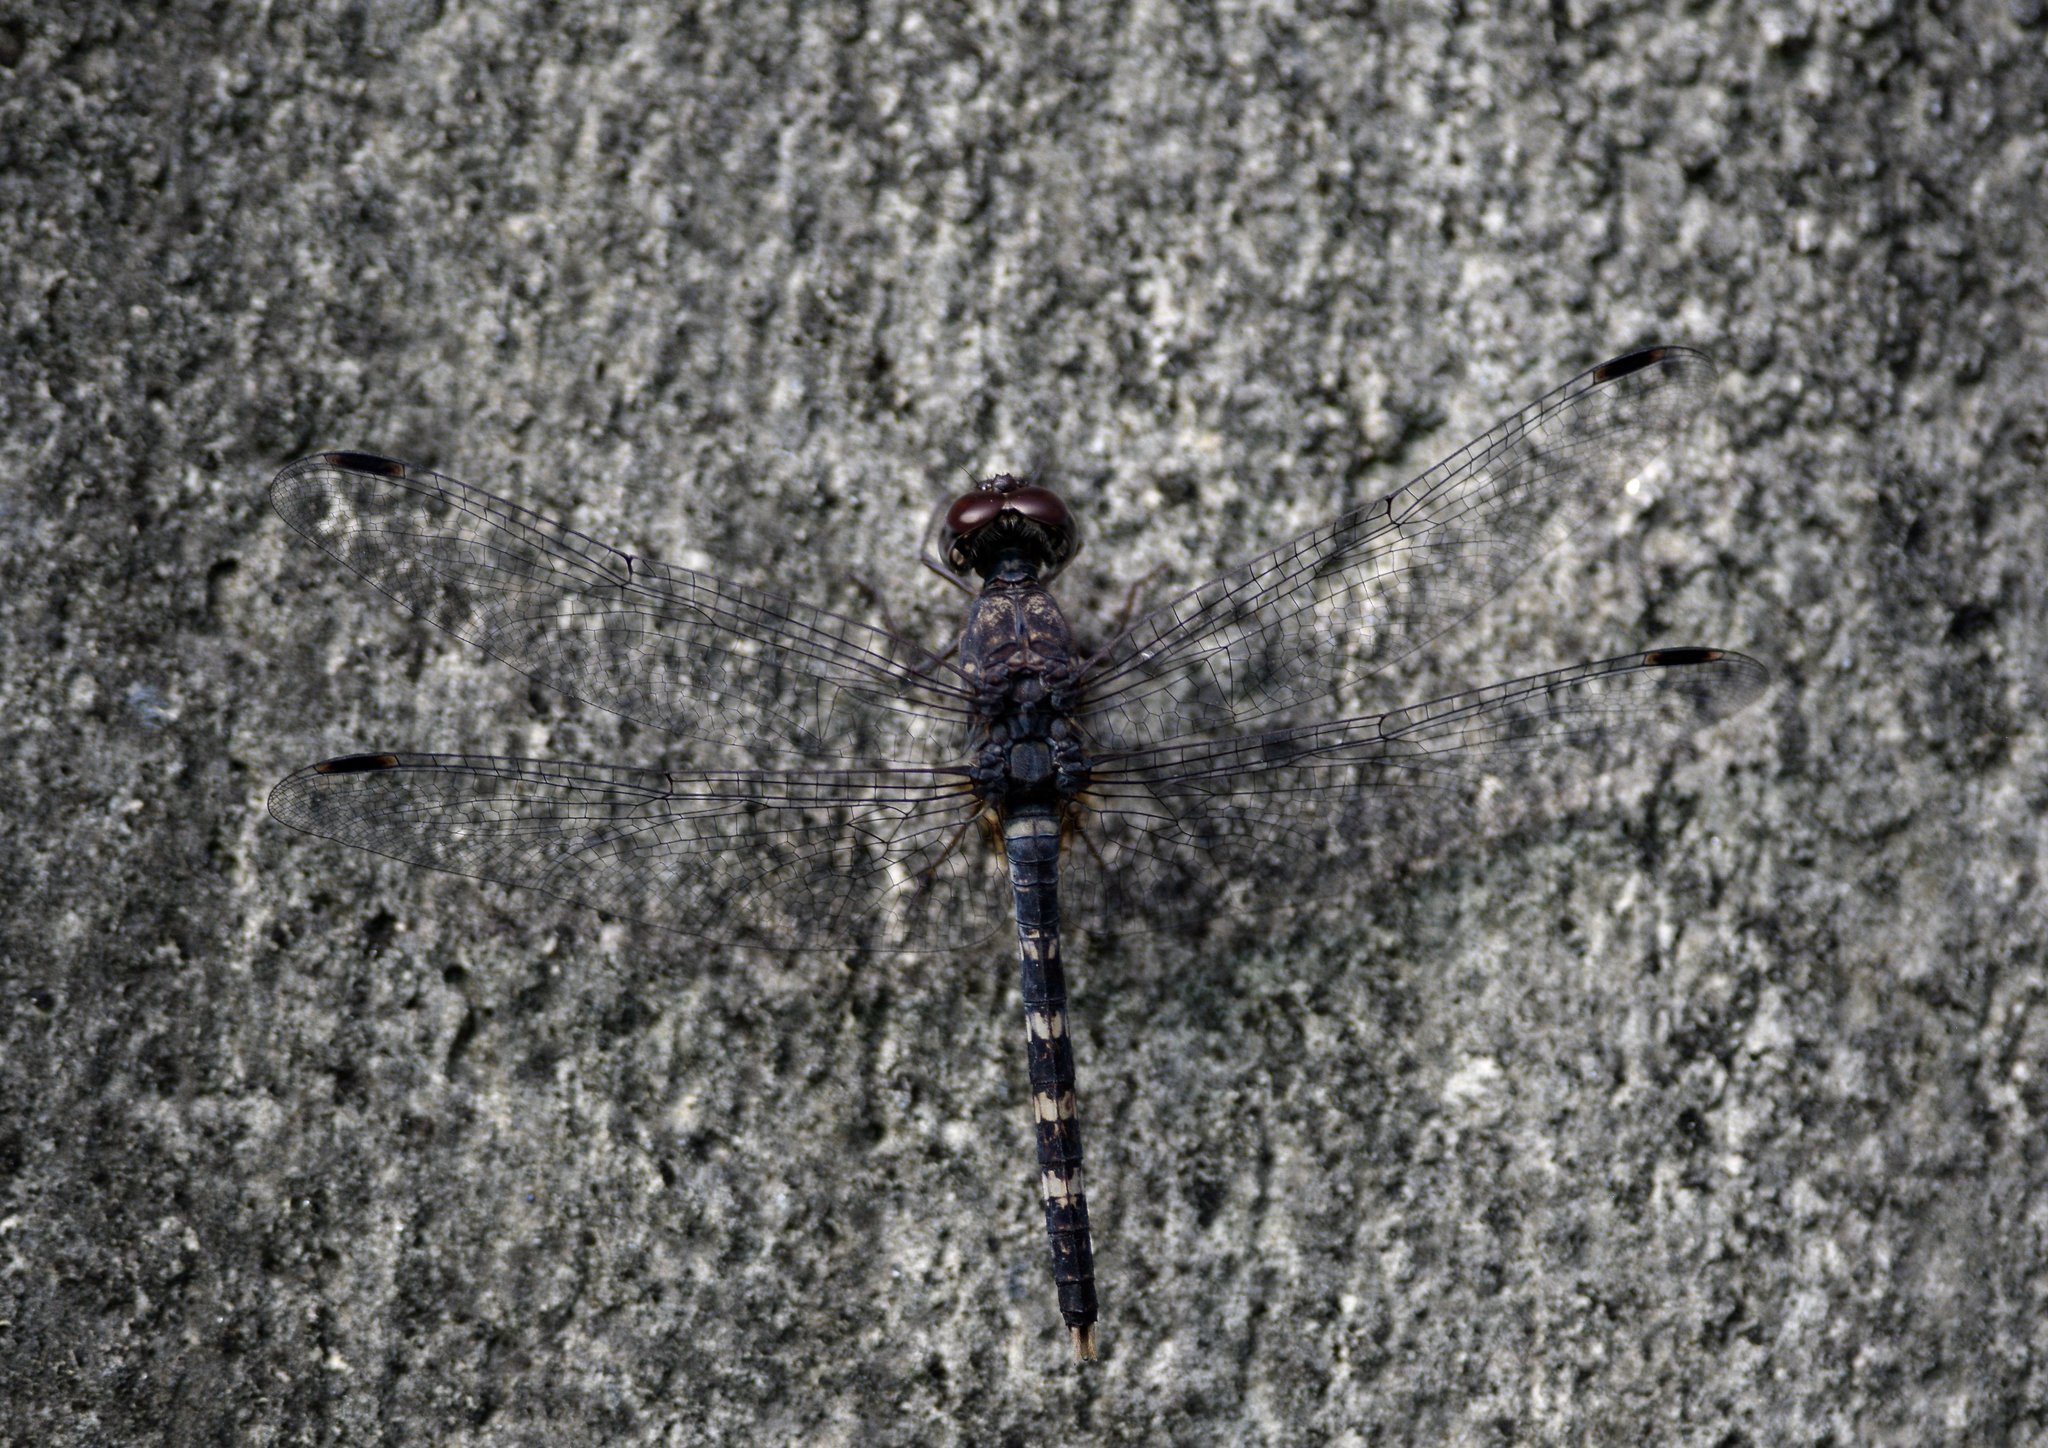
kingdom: Animalia
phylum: Arthropoda
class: Insecta
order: Odonata
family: Libellulidae
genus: Bradinopyga
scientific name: Bradinopyga geminata
